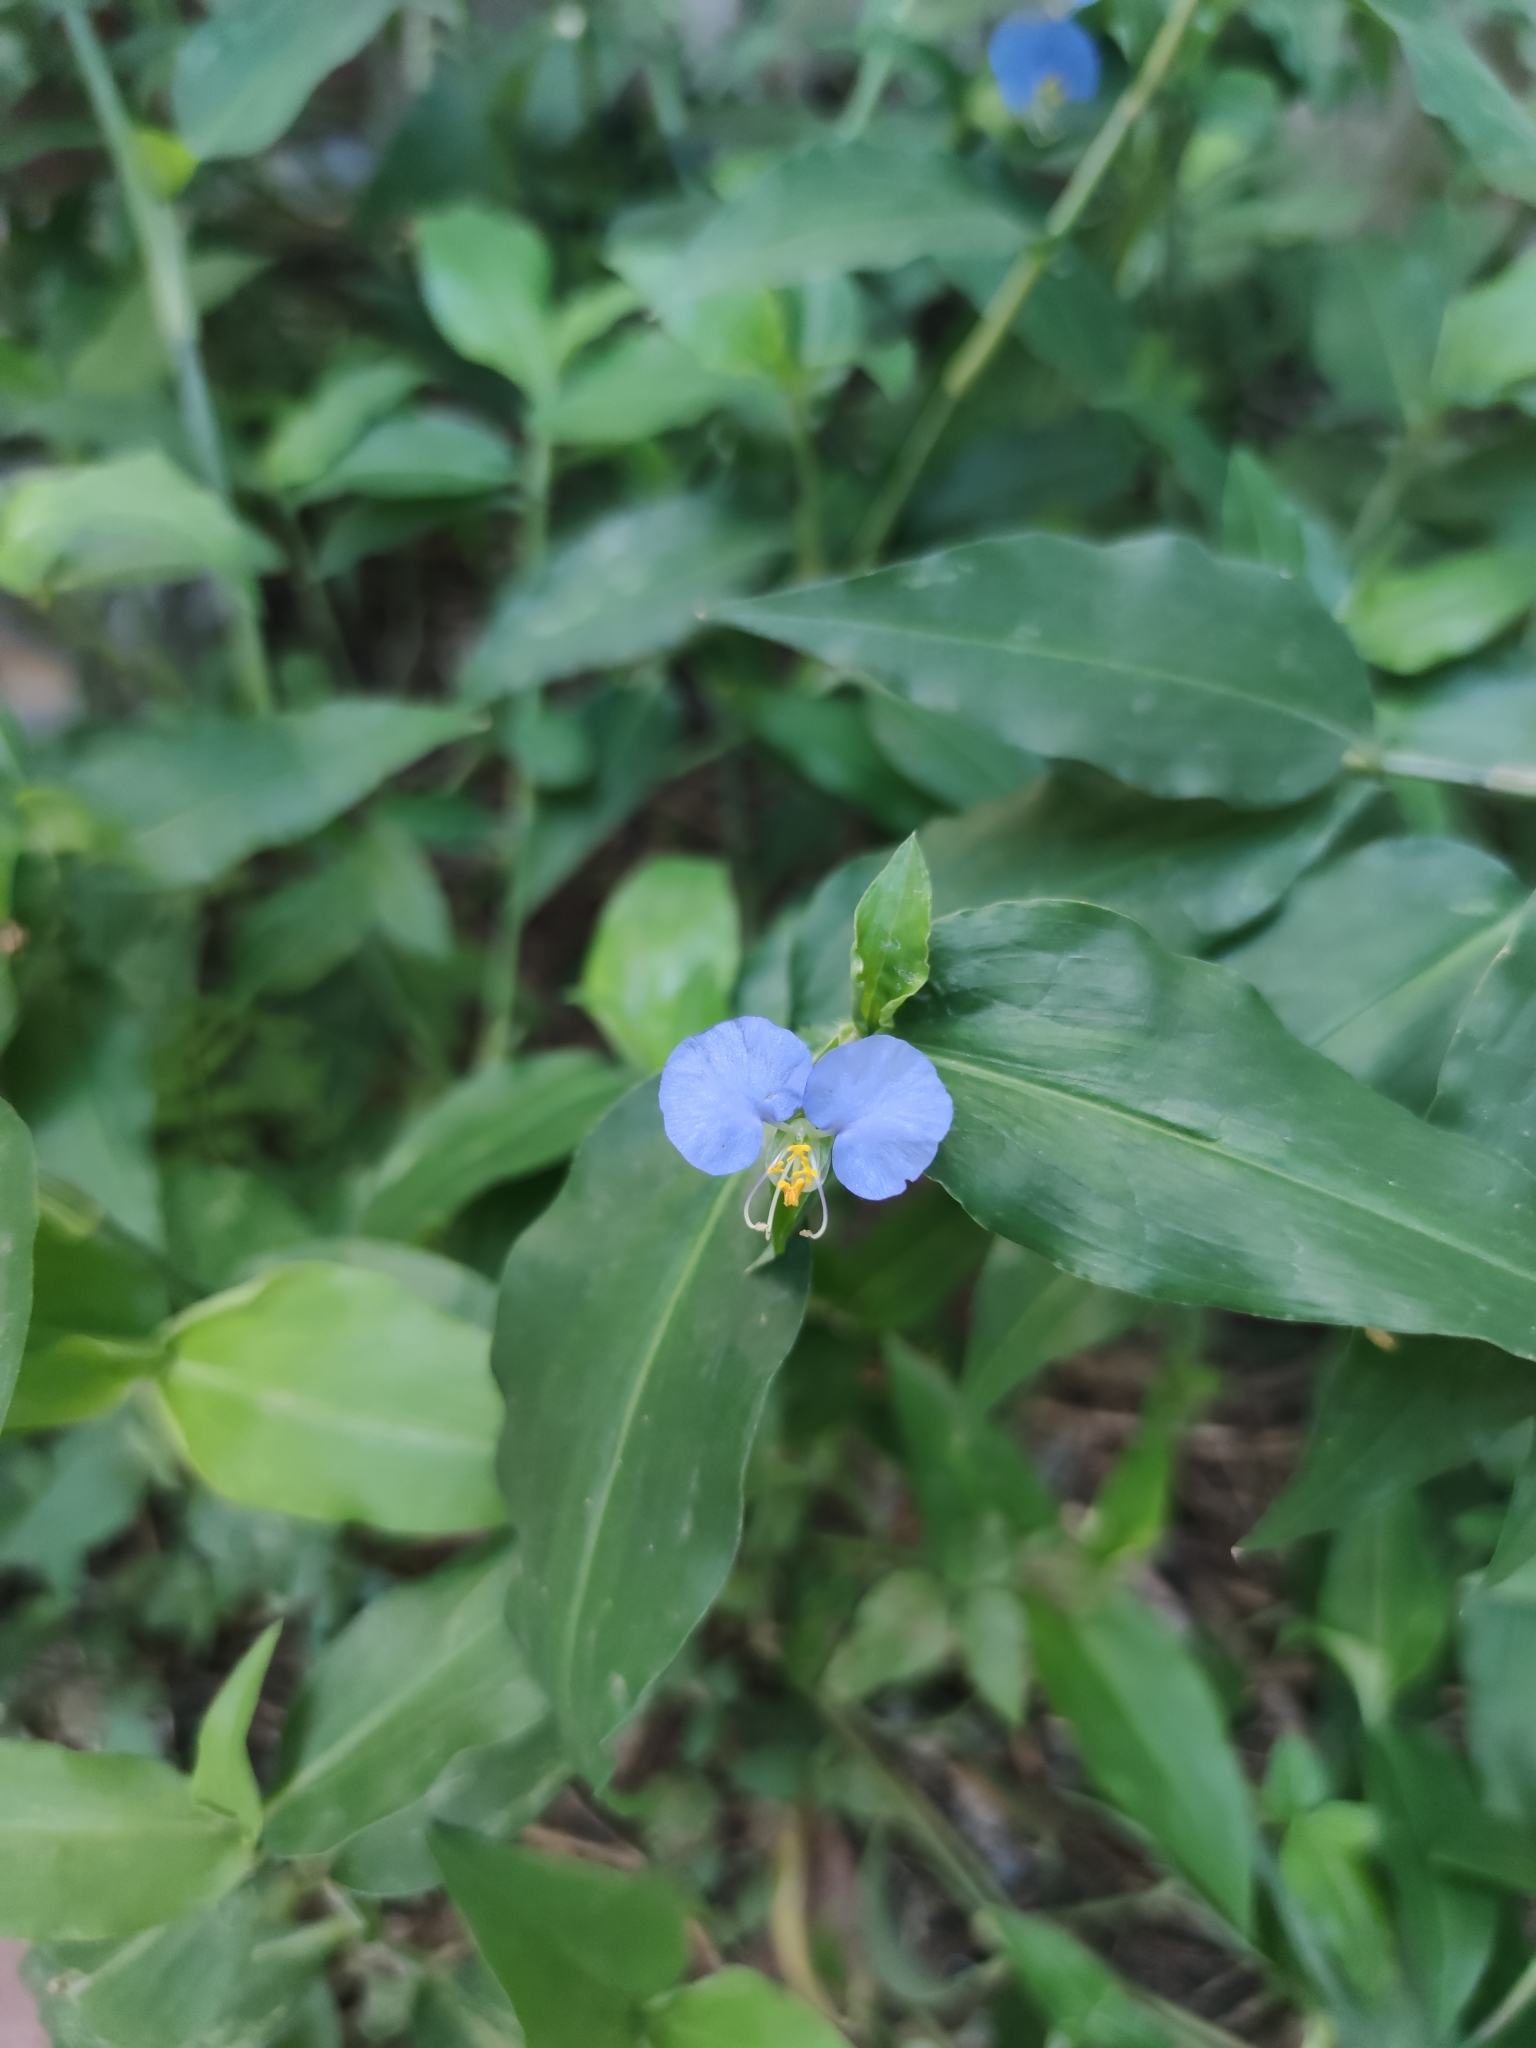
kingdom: Plantae
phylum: Tracheophyta
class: Liliopsida
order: Commelinales
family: Commelinaceae
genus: Commelina
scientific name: Commelina erecta
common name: Blousel blommetjie
